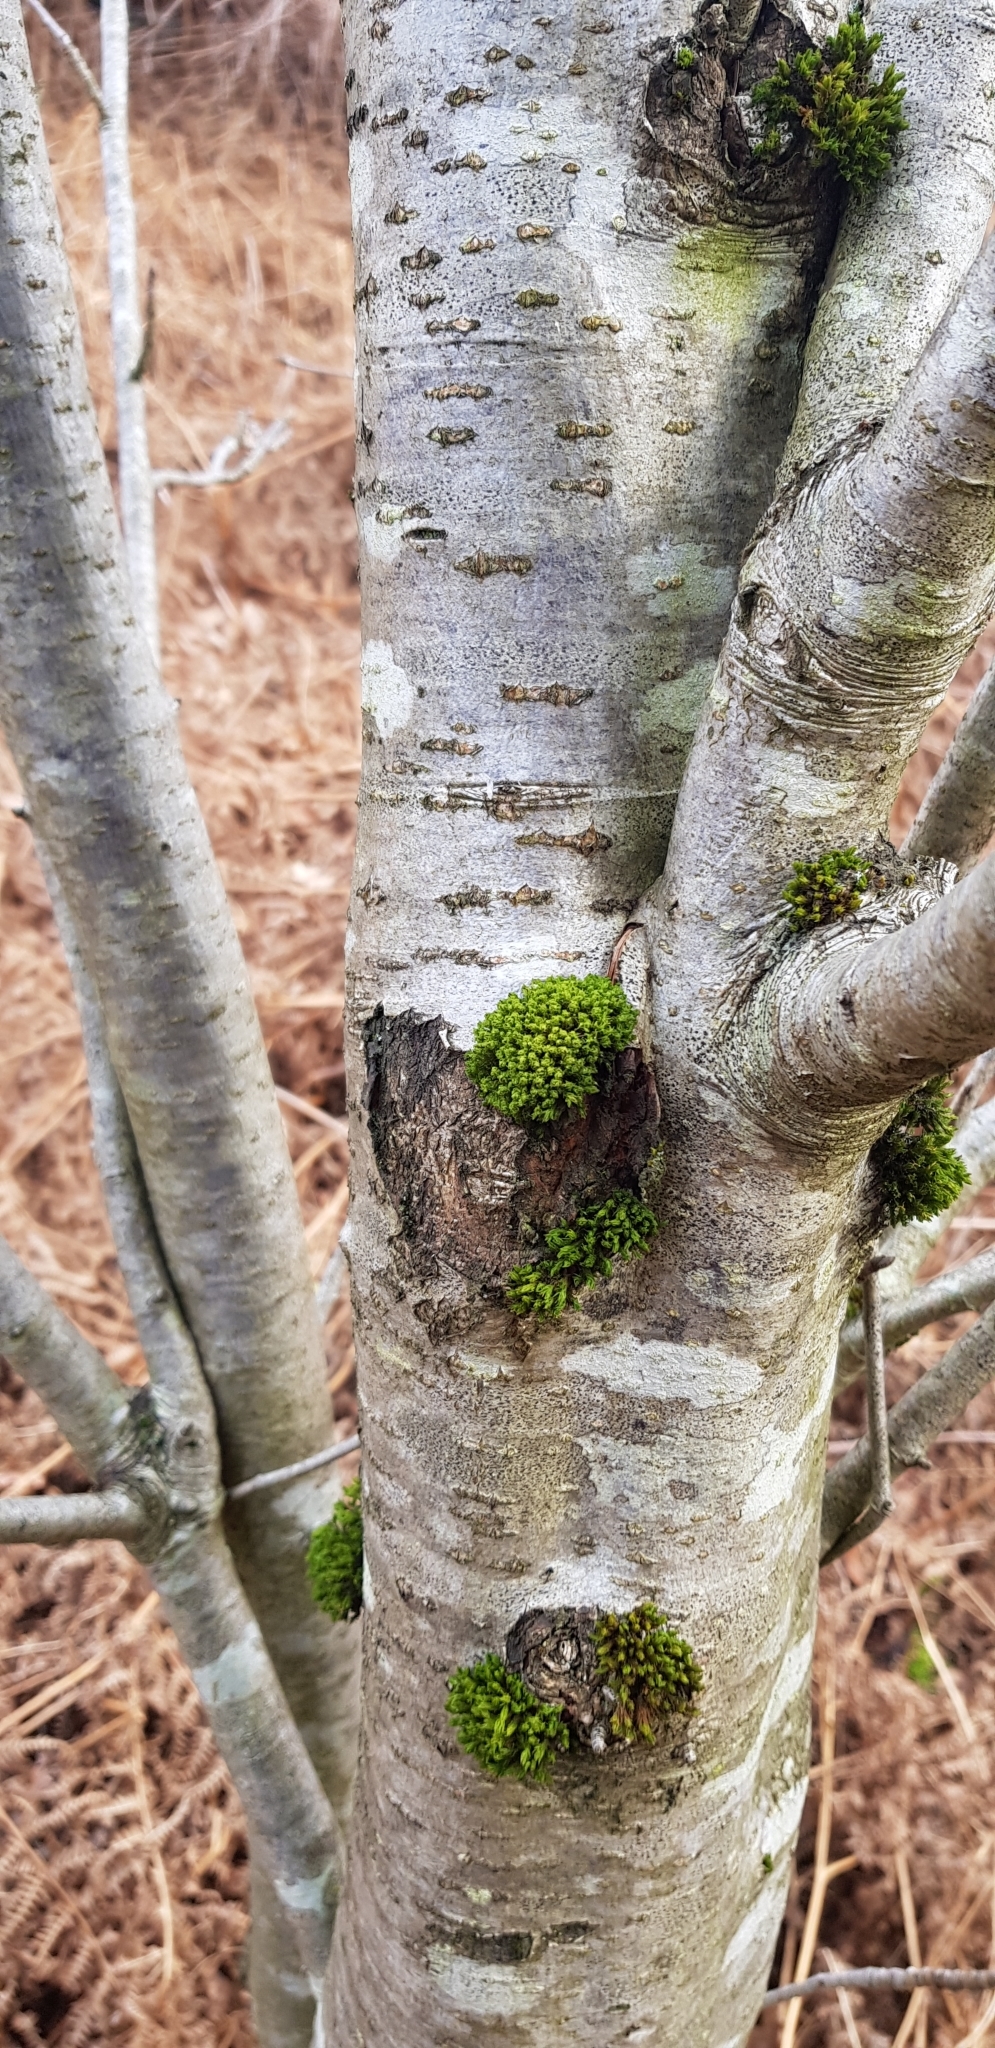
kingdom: Plantae
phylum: Bryophyta
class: Bryopsida
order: Orthotrichales
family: Orthotrichaceae
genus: Plenogemma
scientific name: Plenogemma phyllantha
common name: Frizzled pincushion
